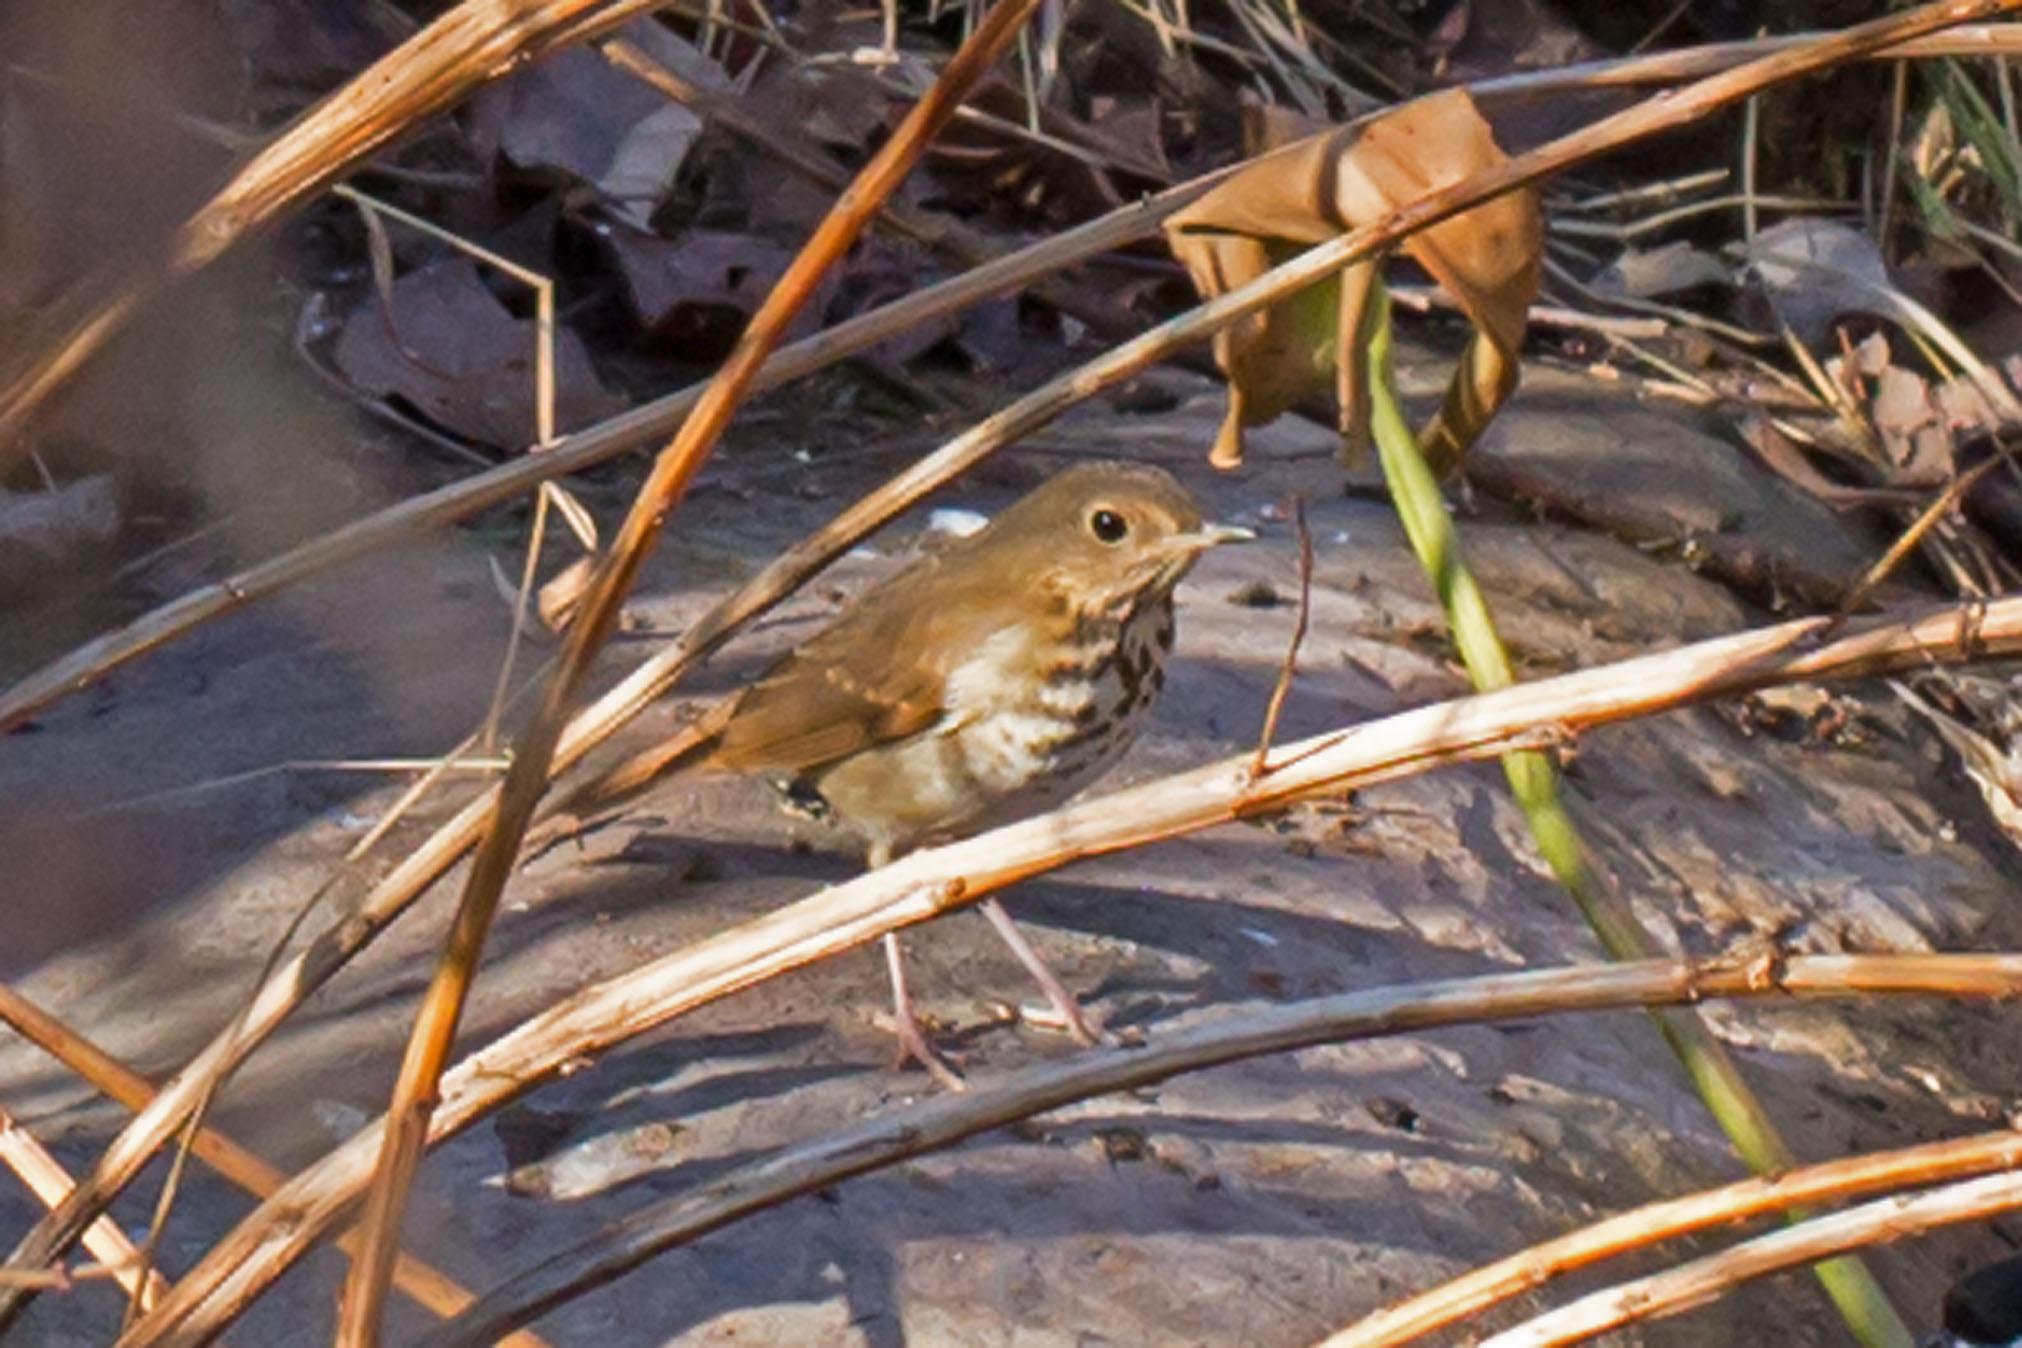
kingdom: Animalia
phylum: Chordata
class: Aves
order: Passeriformes
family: Turdidae
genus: Catharus
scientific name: Catharus guttatus
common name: Hermit thrush
